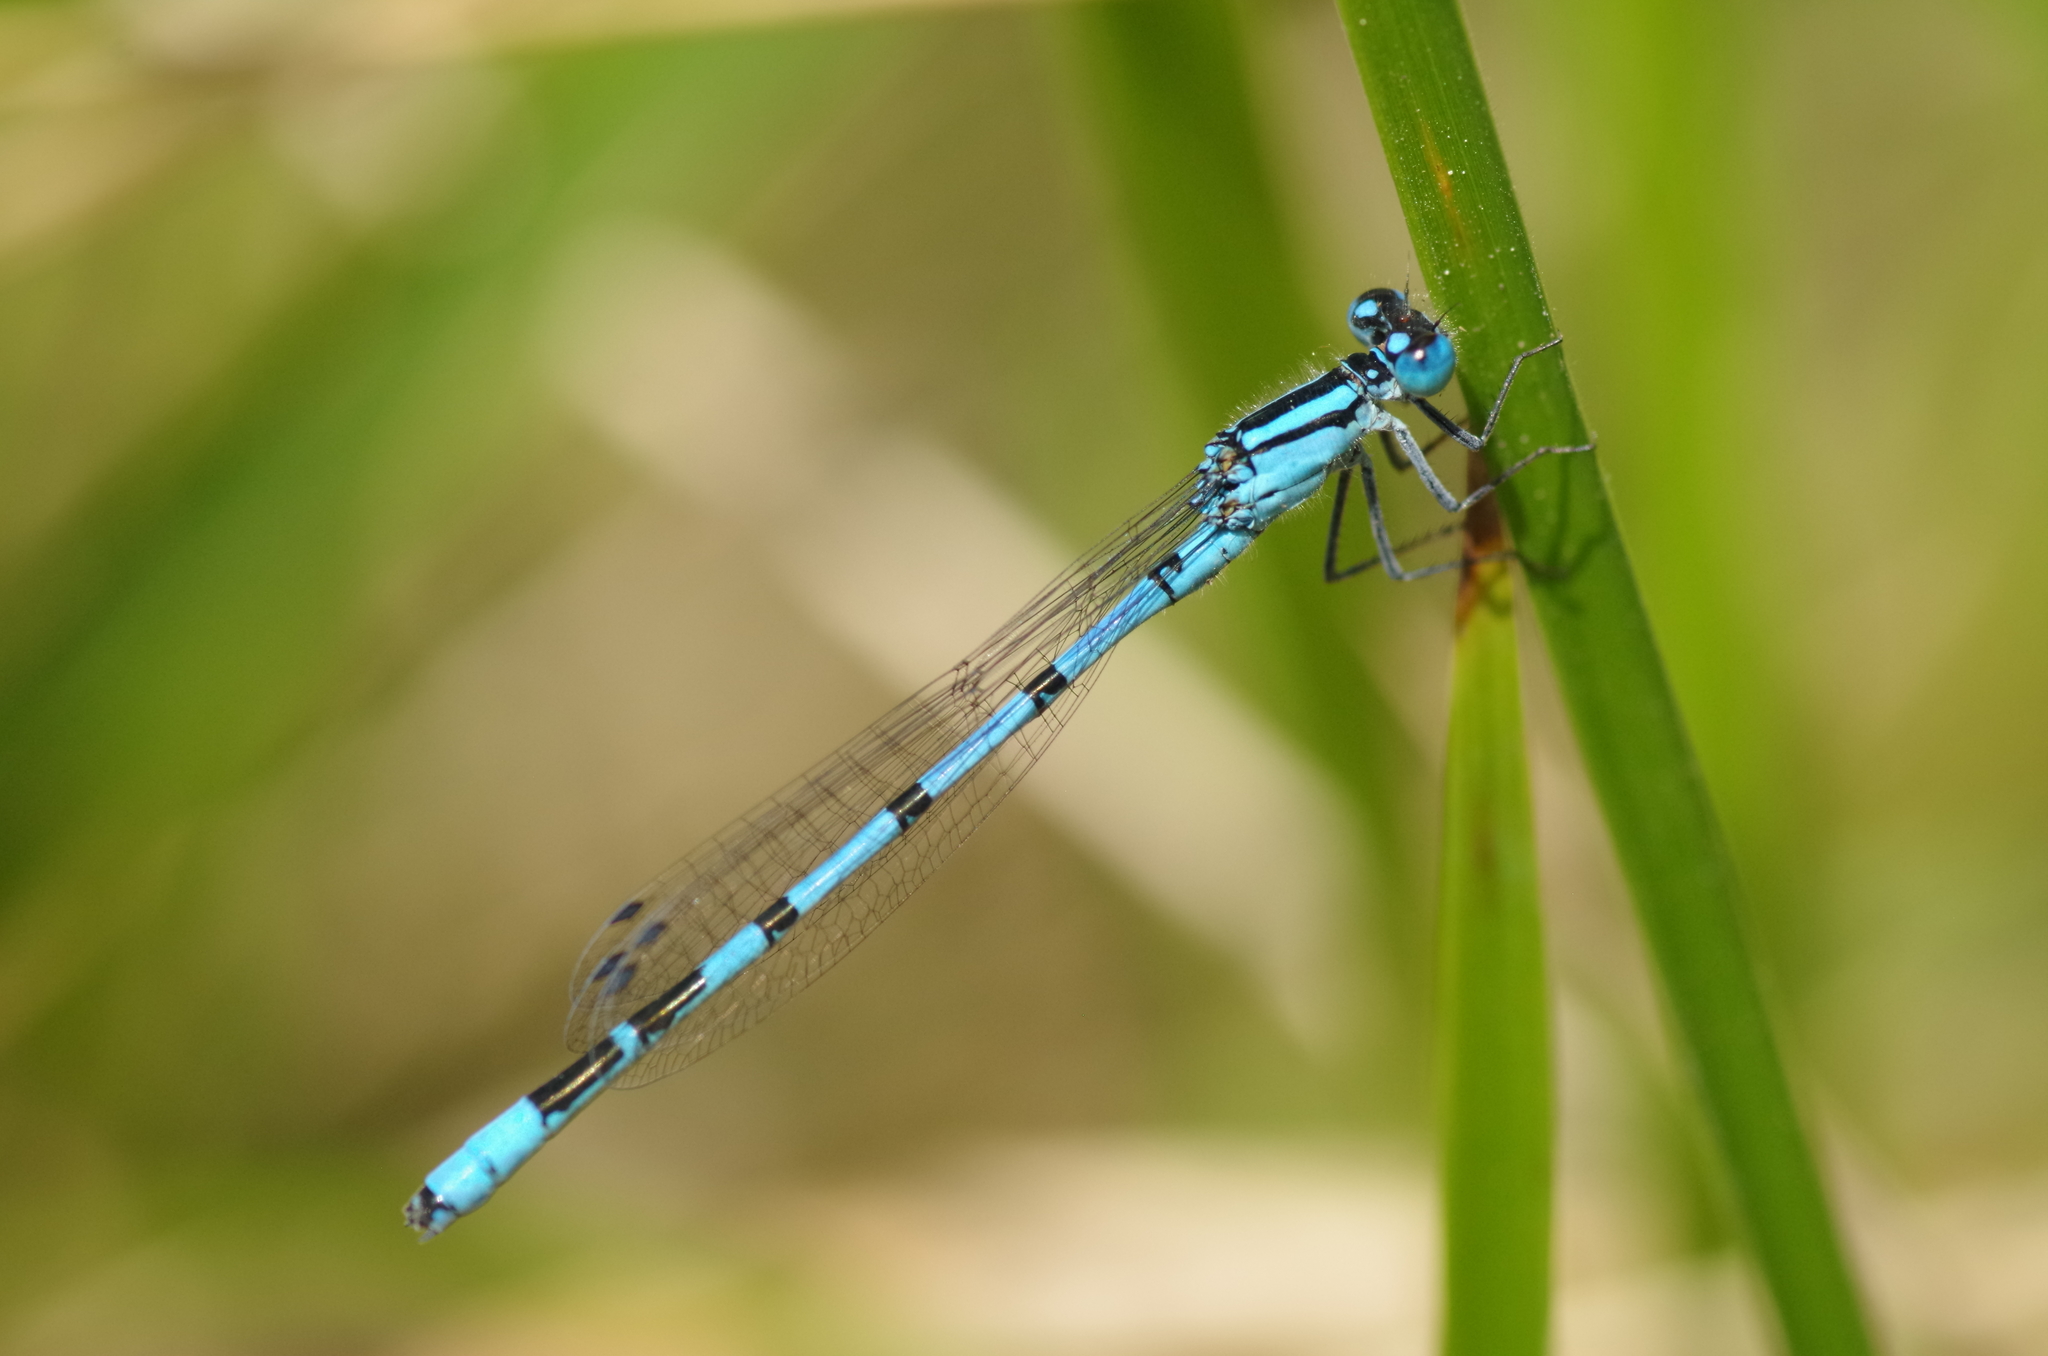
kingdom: Animalia
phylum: Arthropoda
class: Insecta
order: Odonata
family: Coenagrionidae
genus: Enallagma
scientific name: Enallagma cyathigerum
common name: Common blue damselfly
